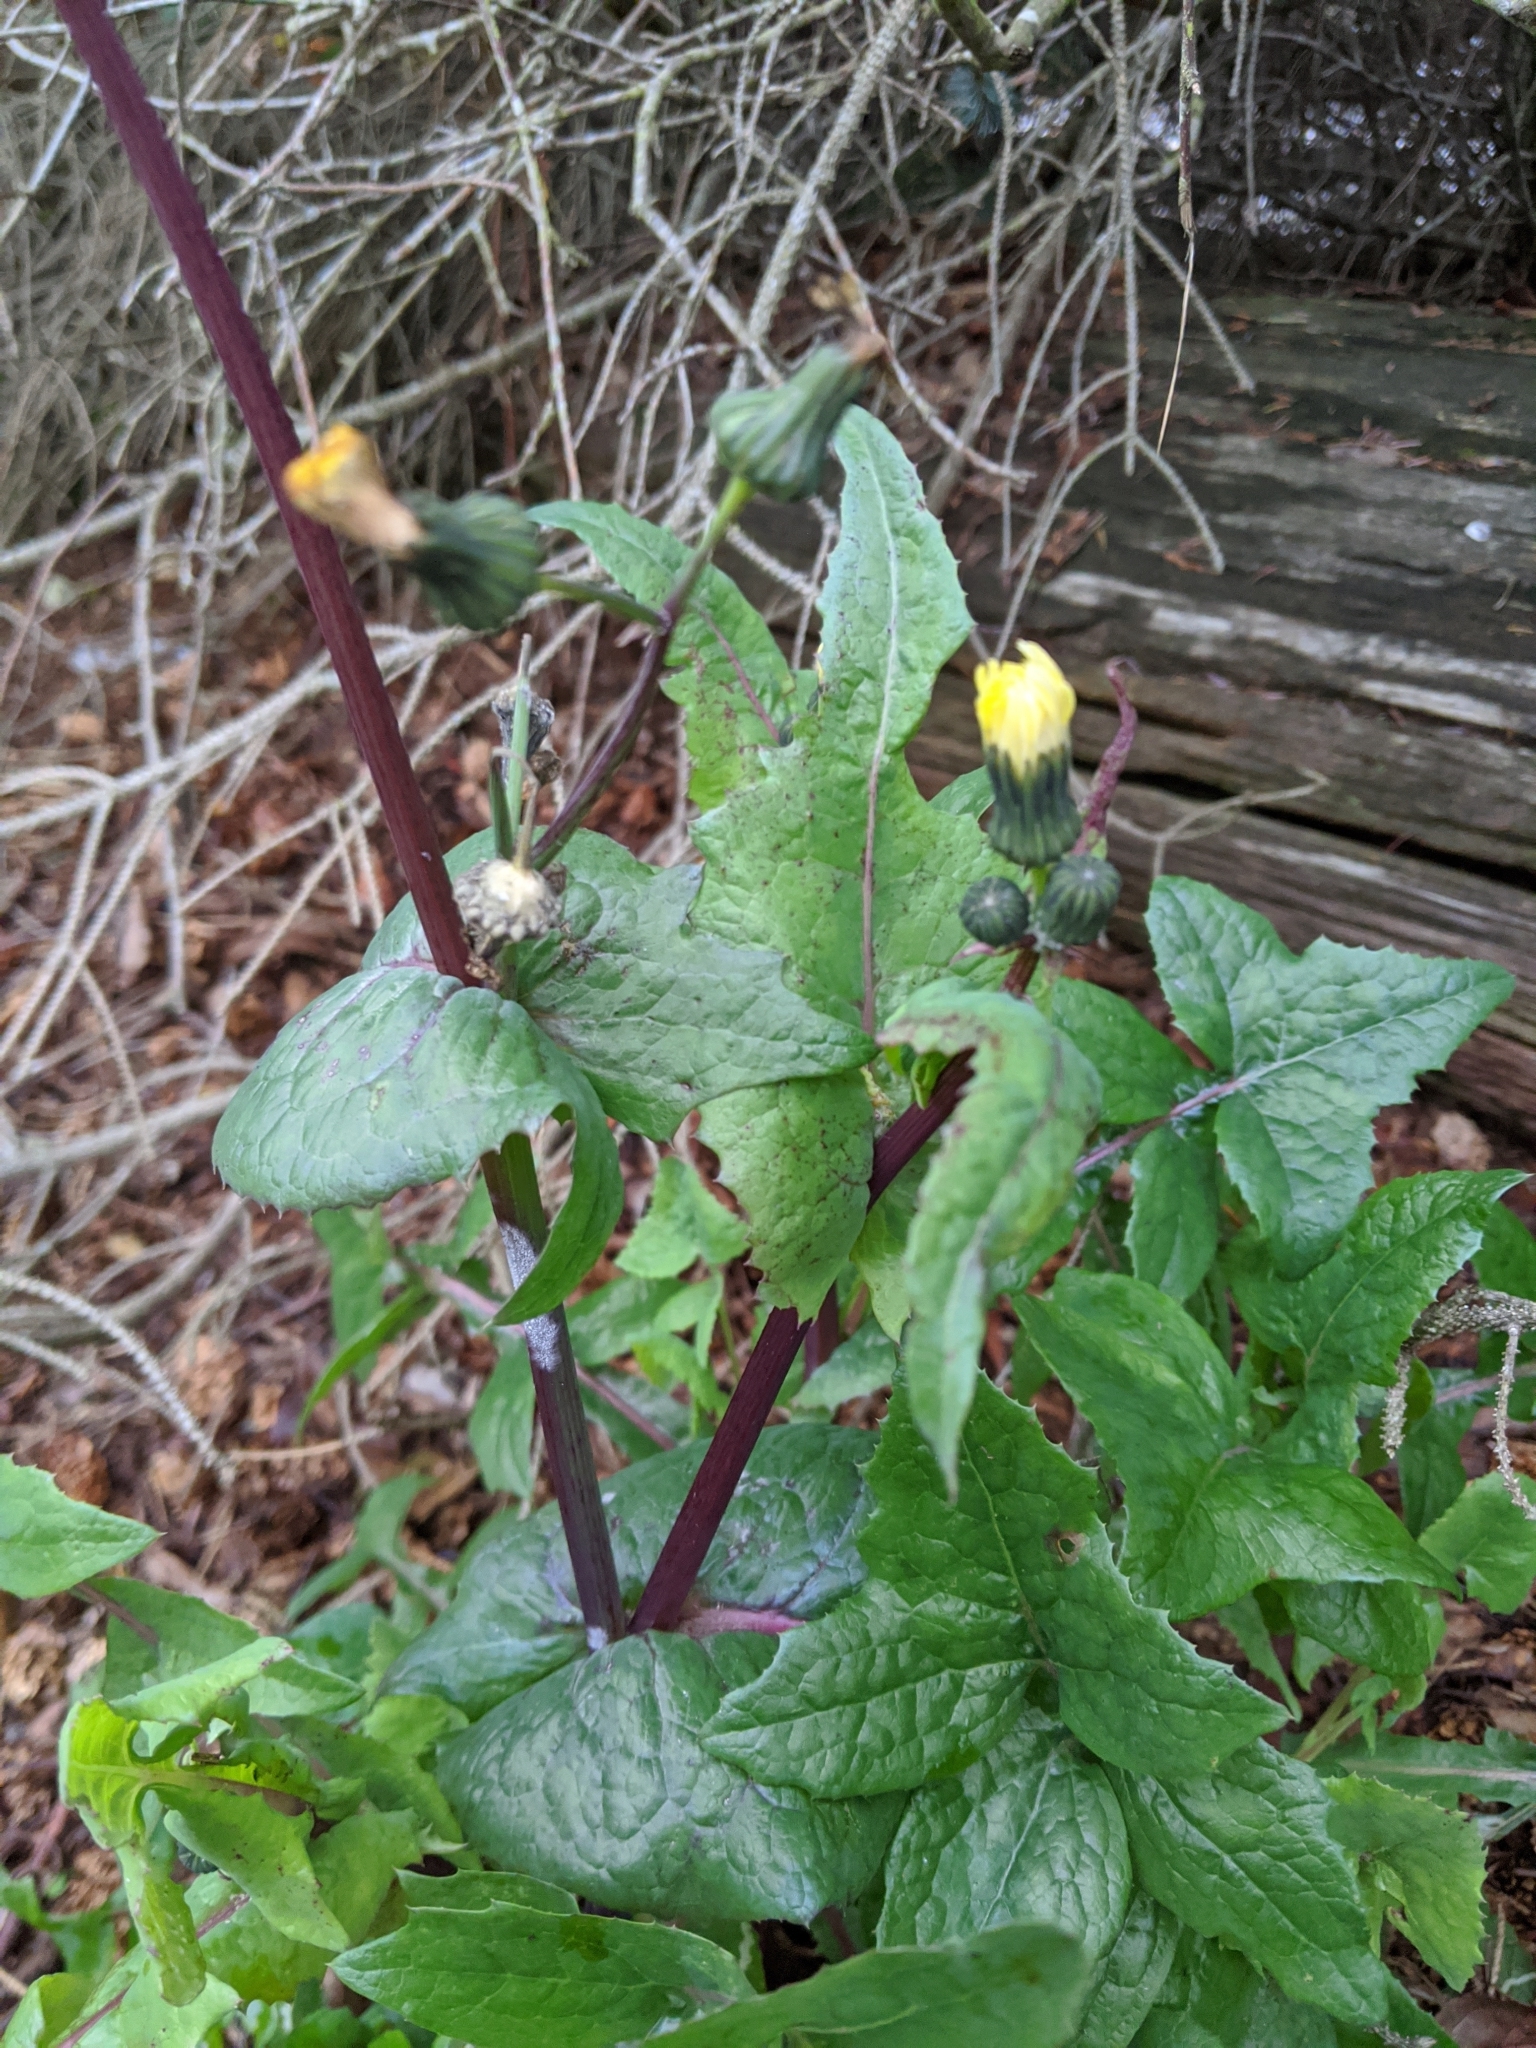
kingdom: Plantae
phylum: Tracheophyta
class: Magnoliopsida
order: Asterales
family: Asteraceae
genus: Sonchus
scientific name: Sonchus oleraceus
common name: Common sowthistle
